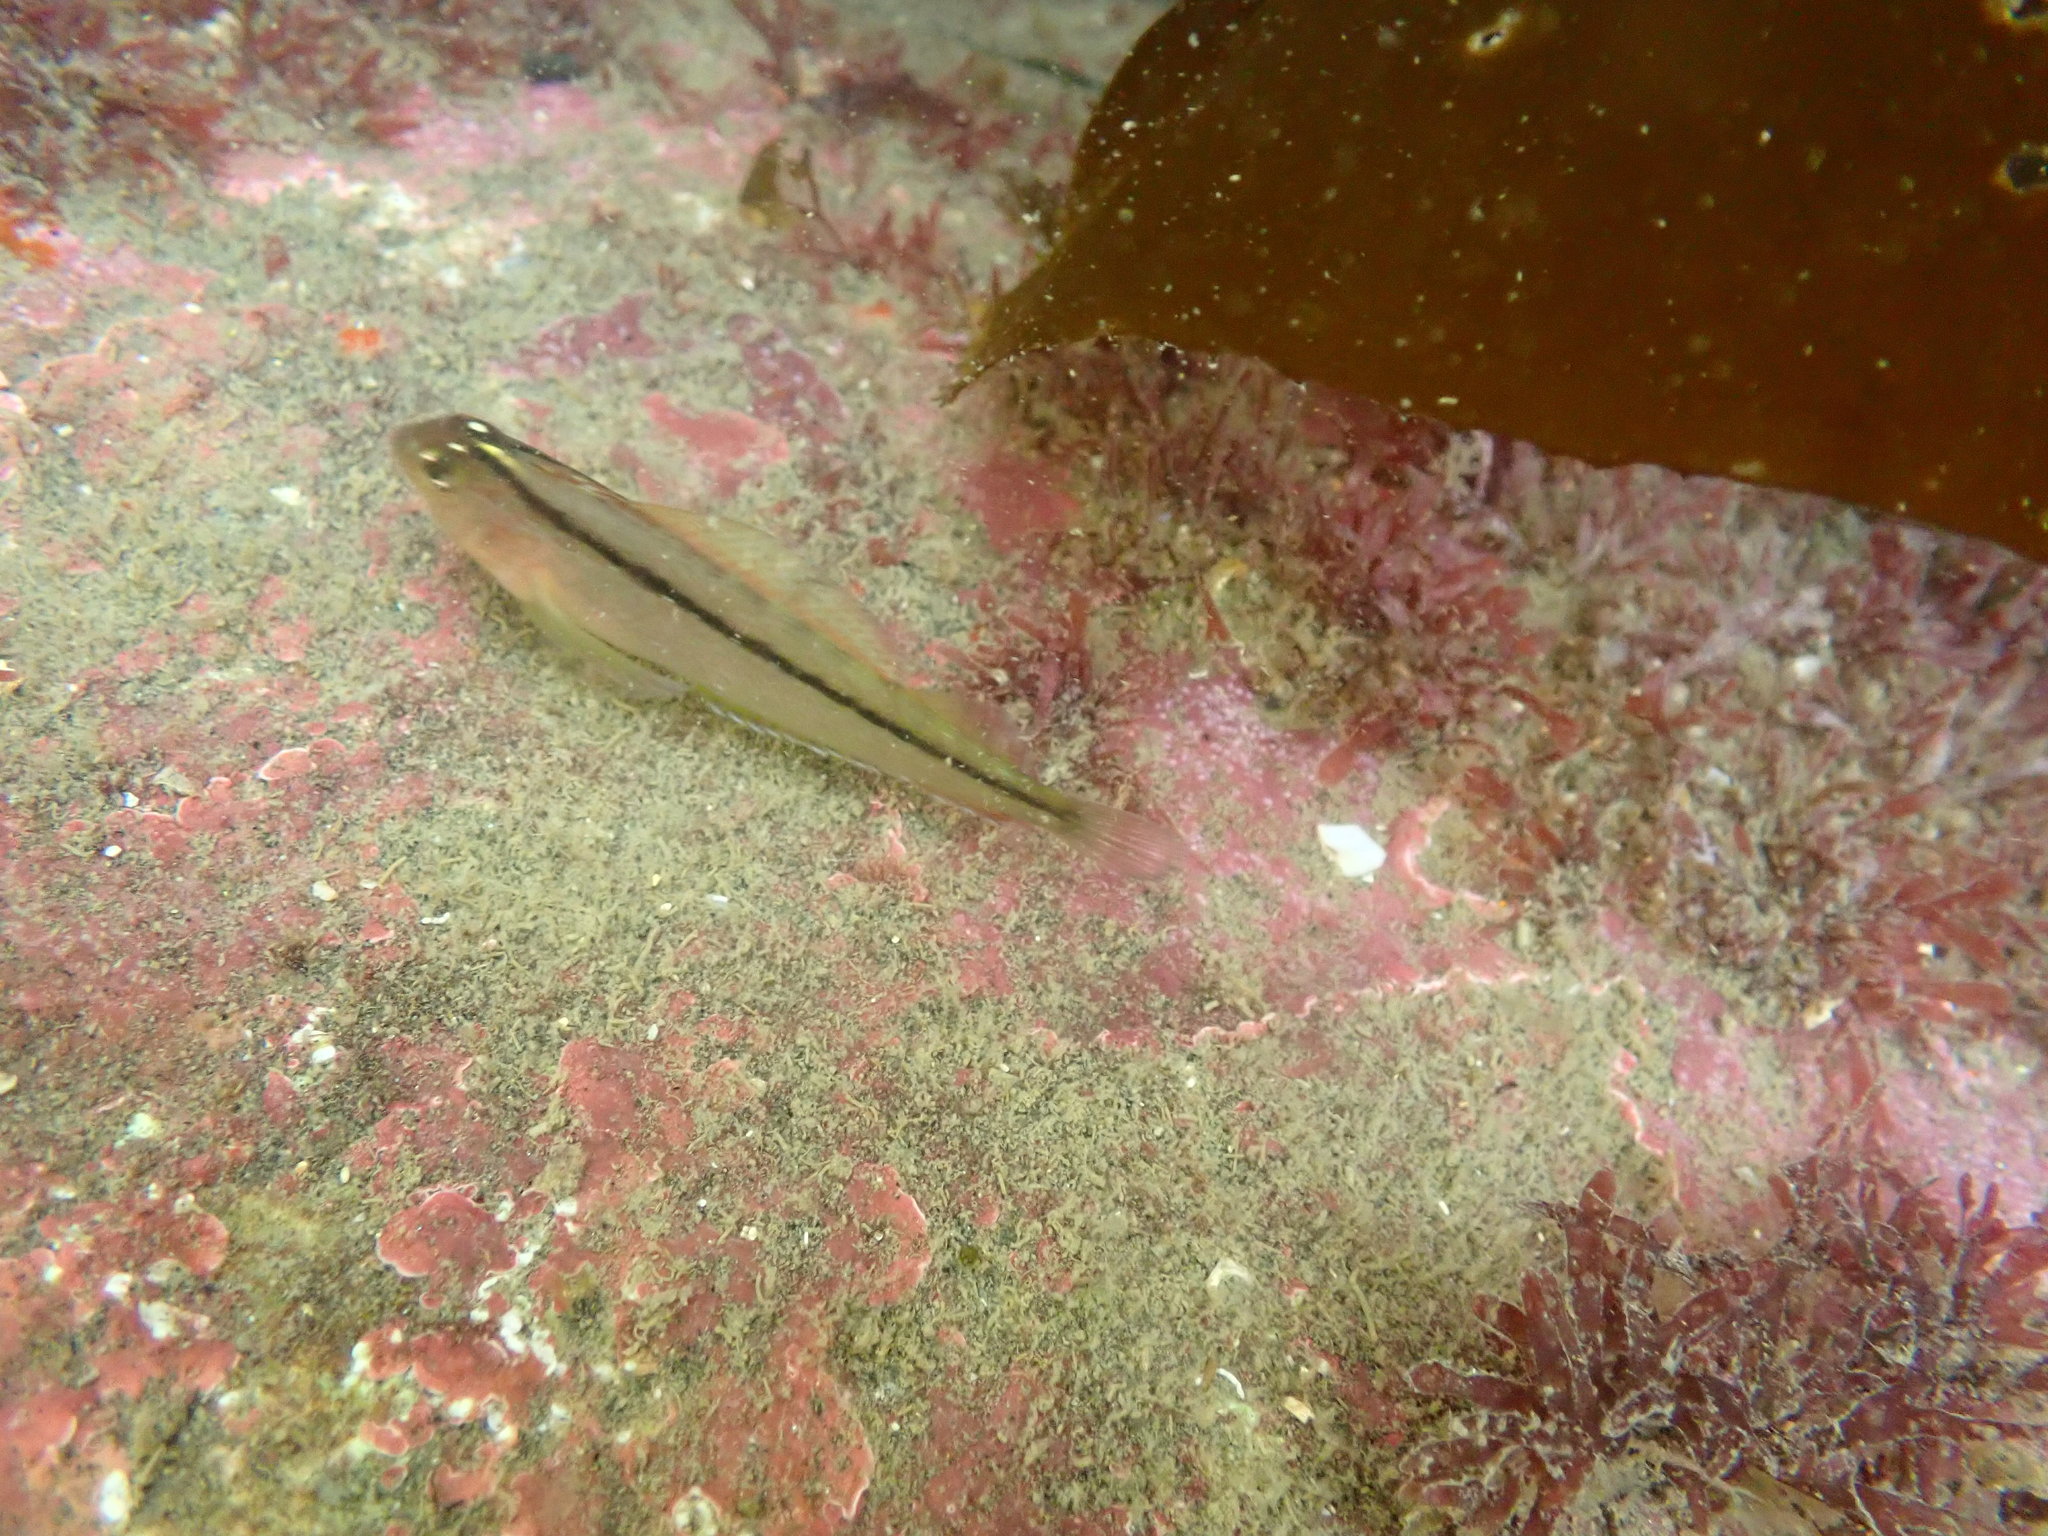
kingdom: Animalia
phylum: Chordata
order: Perciformes
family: Tripterygiidae
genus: Forsterygion
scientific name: Forsterygion lapillum
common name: Common triplefin
